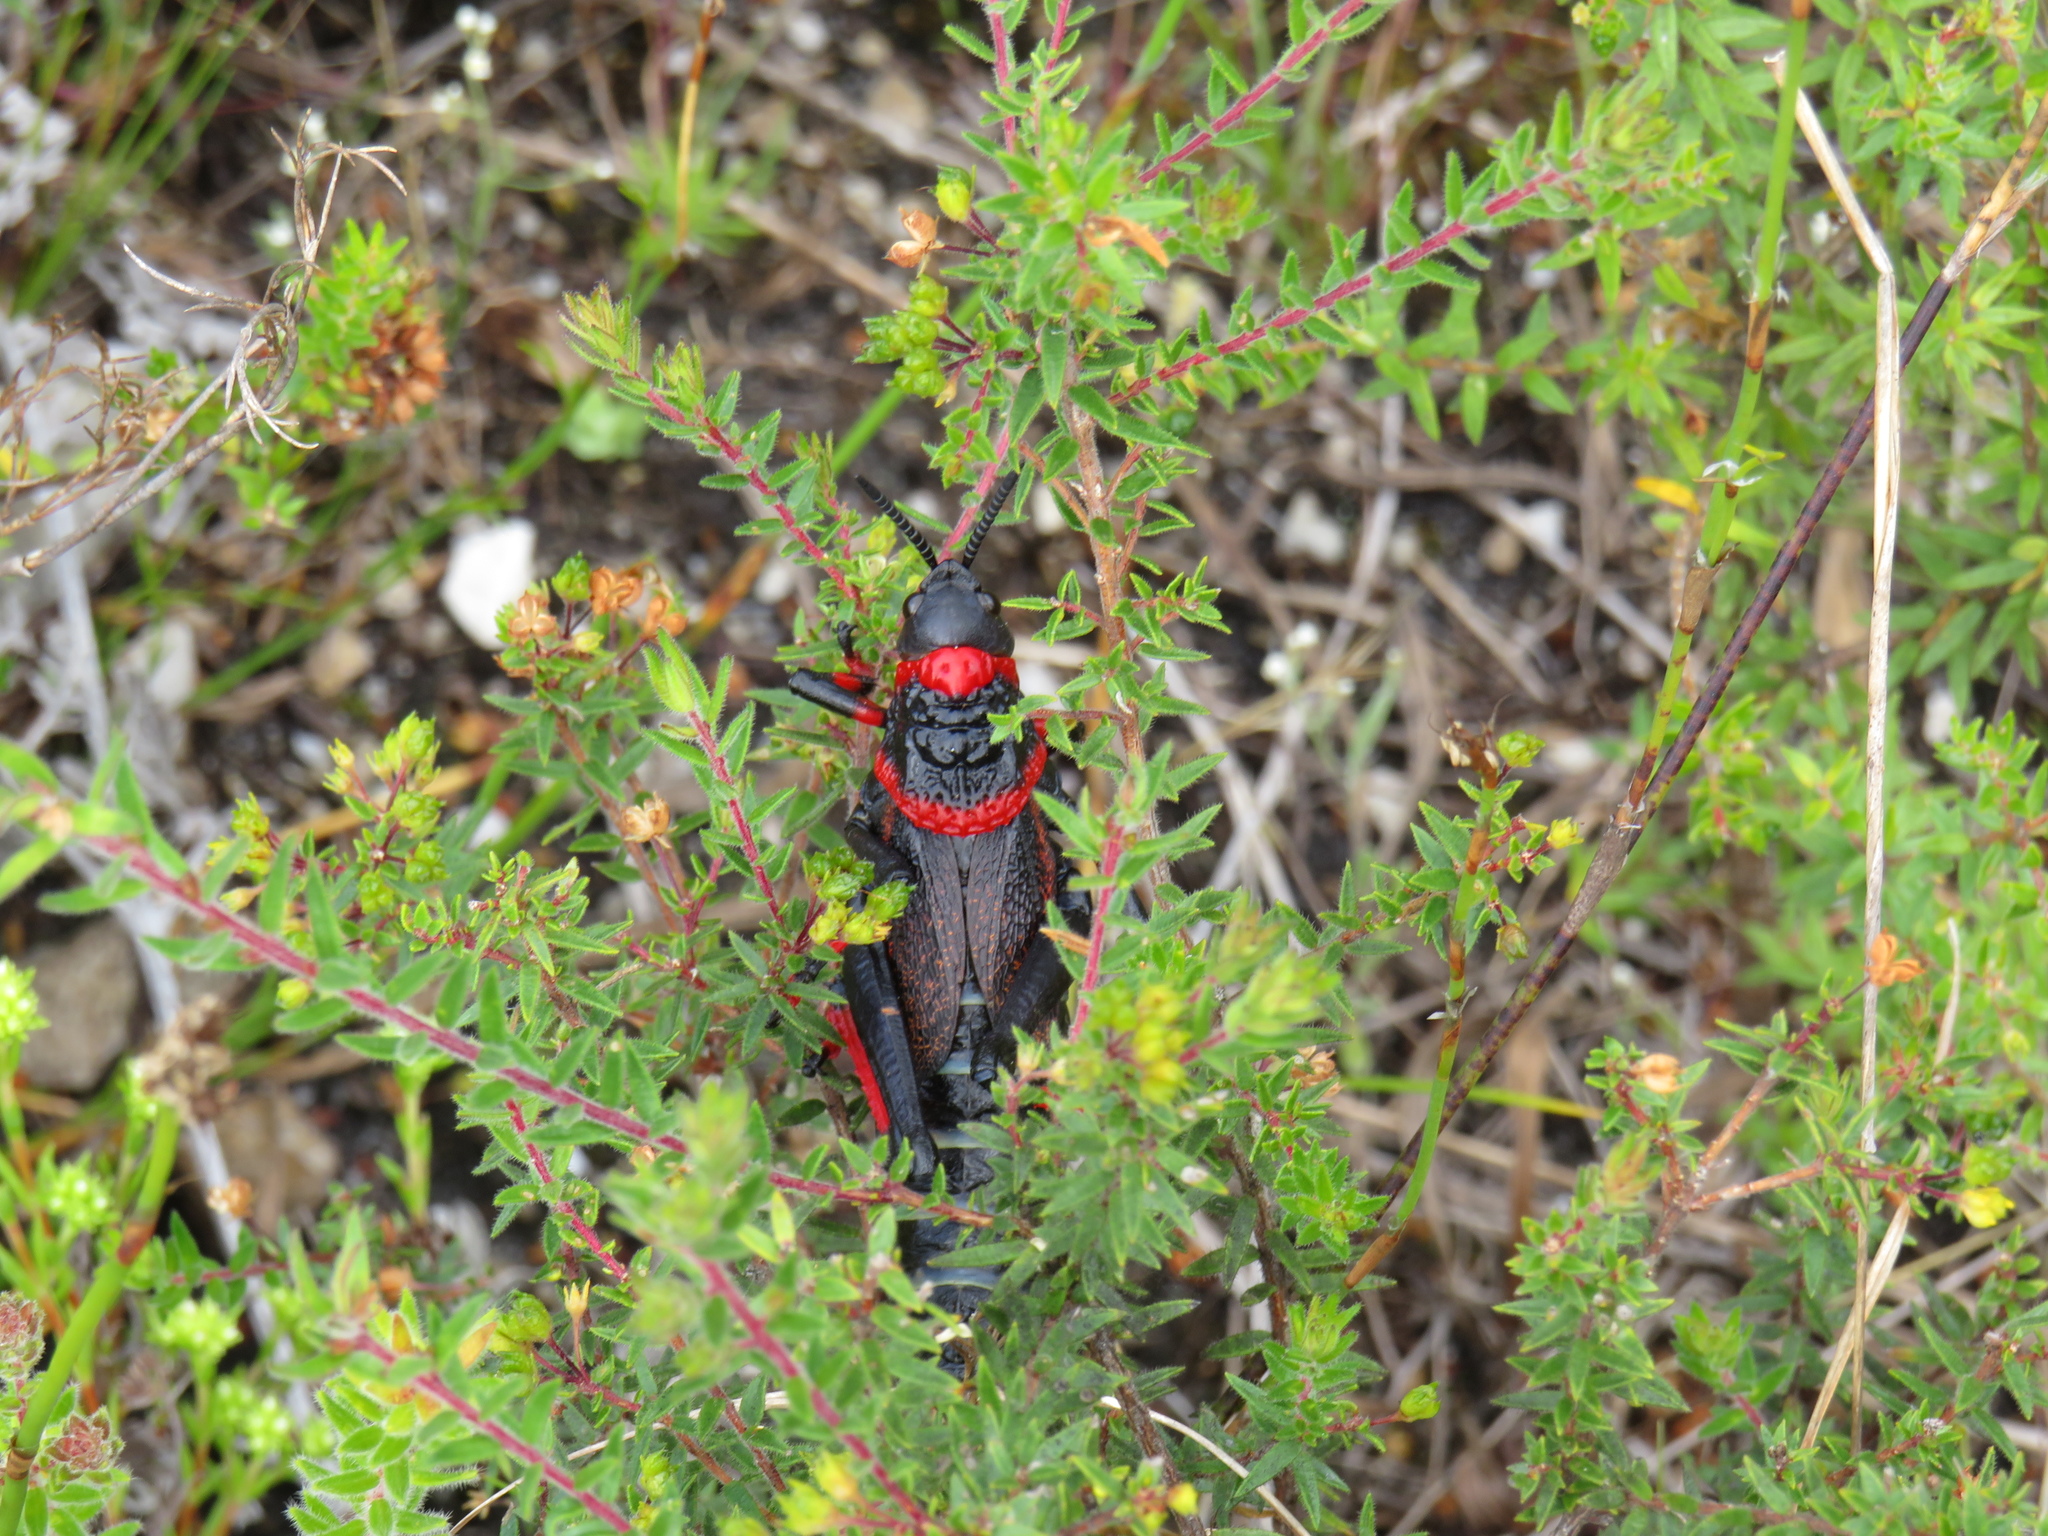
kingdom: Animalia
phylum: Arthropoda
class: Insecta
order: Orthoptera
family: Pyrgomorphidae
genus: Dictyophorus
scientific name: Dictyophorus spumans
